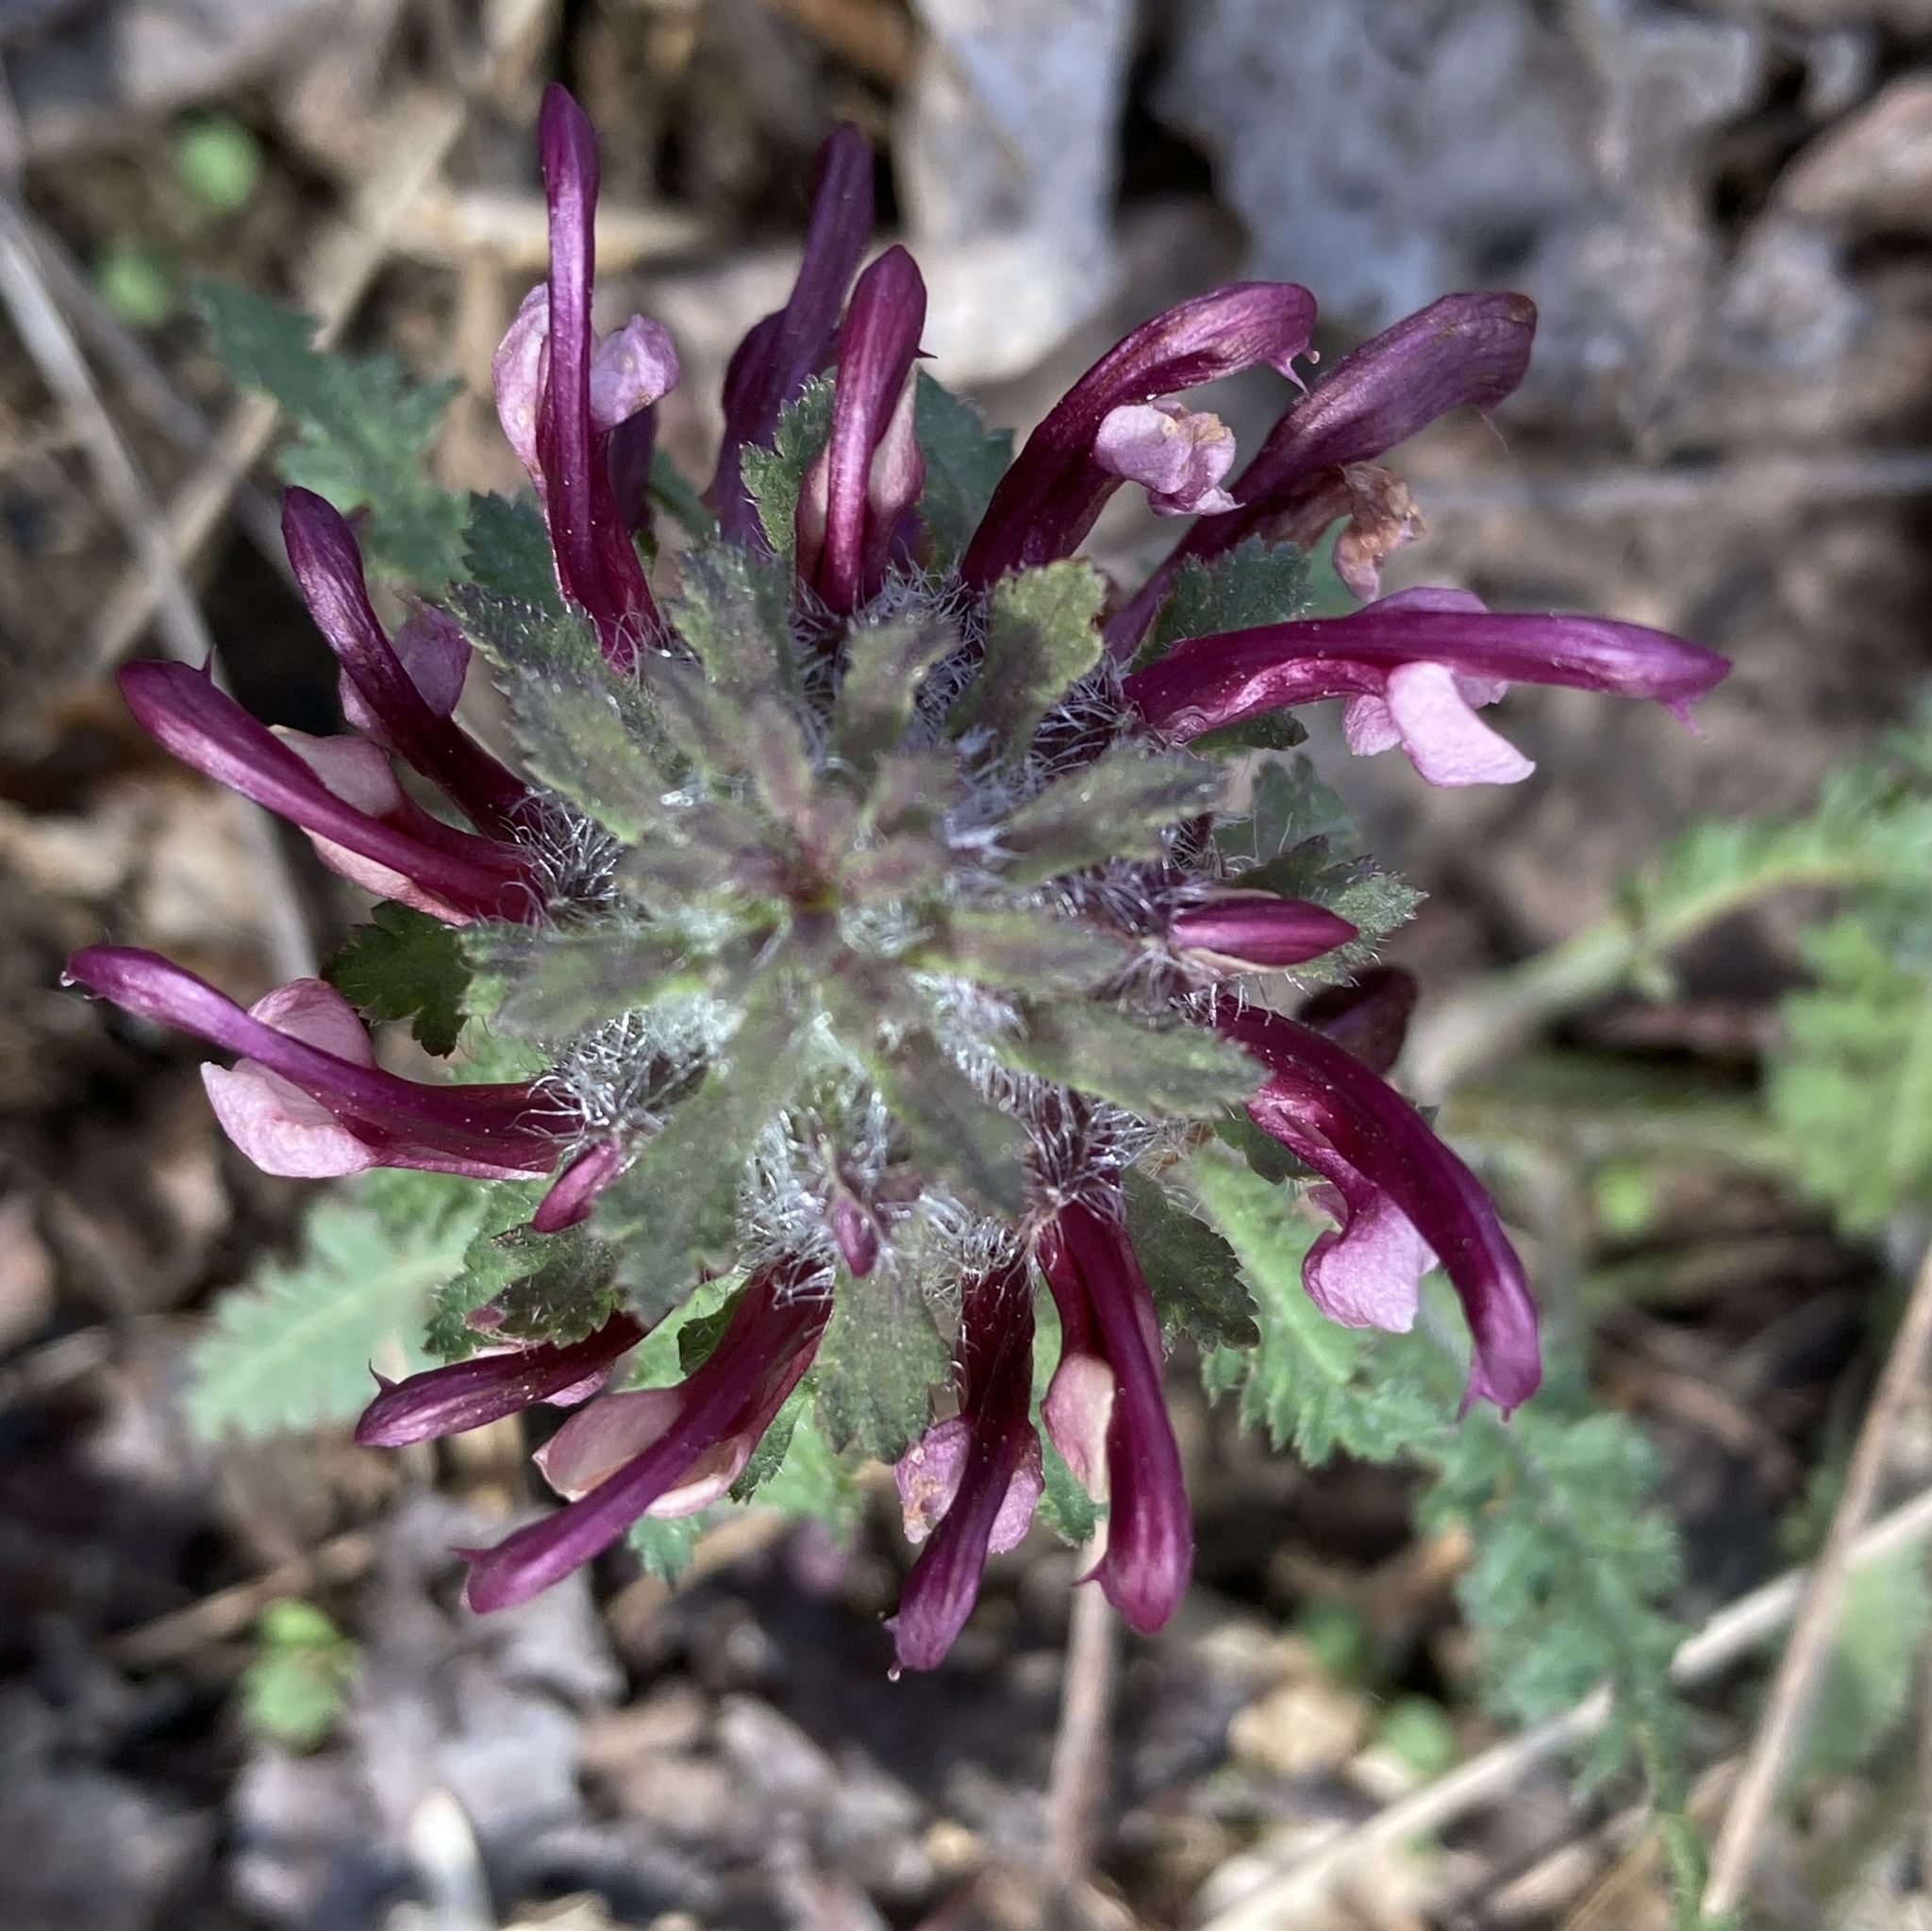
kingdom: Plantae
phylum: Tracheophyta
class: Magnoliopsida
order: Lamiales
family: Orobanchaceae
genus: Pedicularis
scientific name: Pedicularis canadensis
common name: Early lousewort
